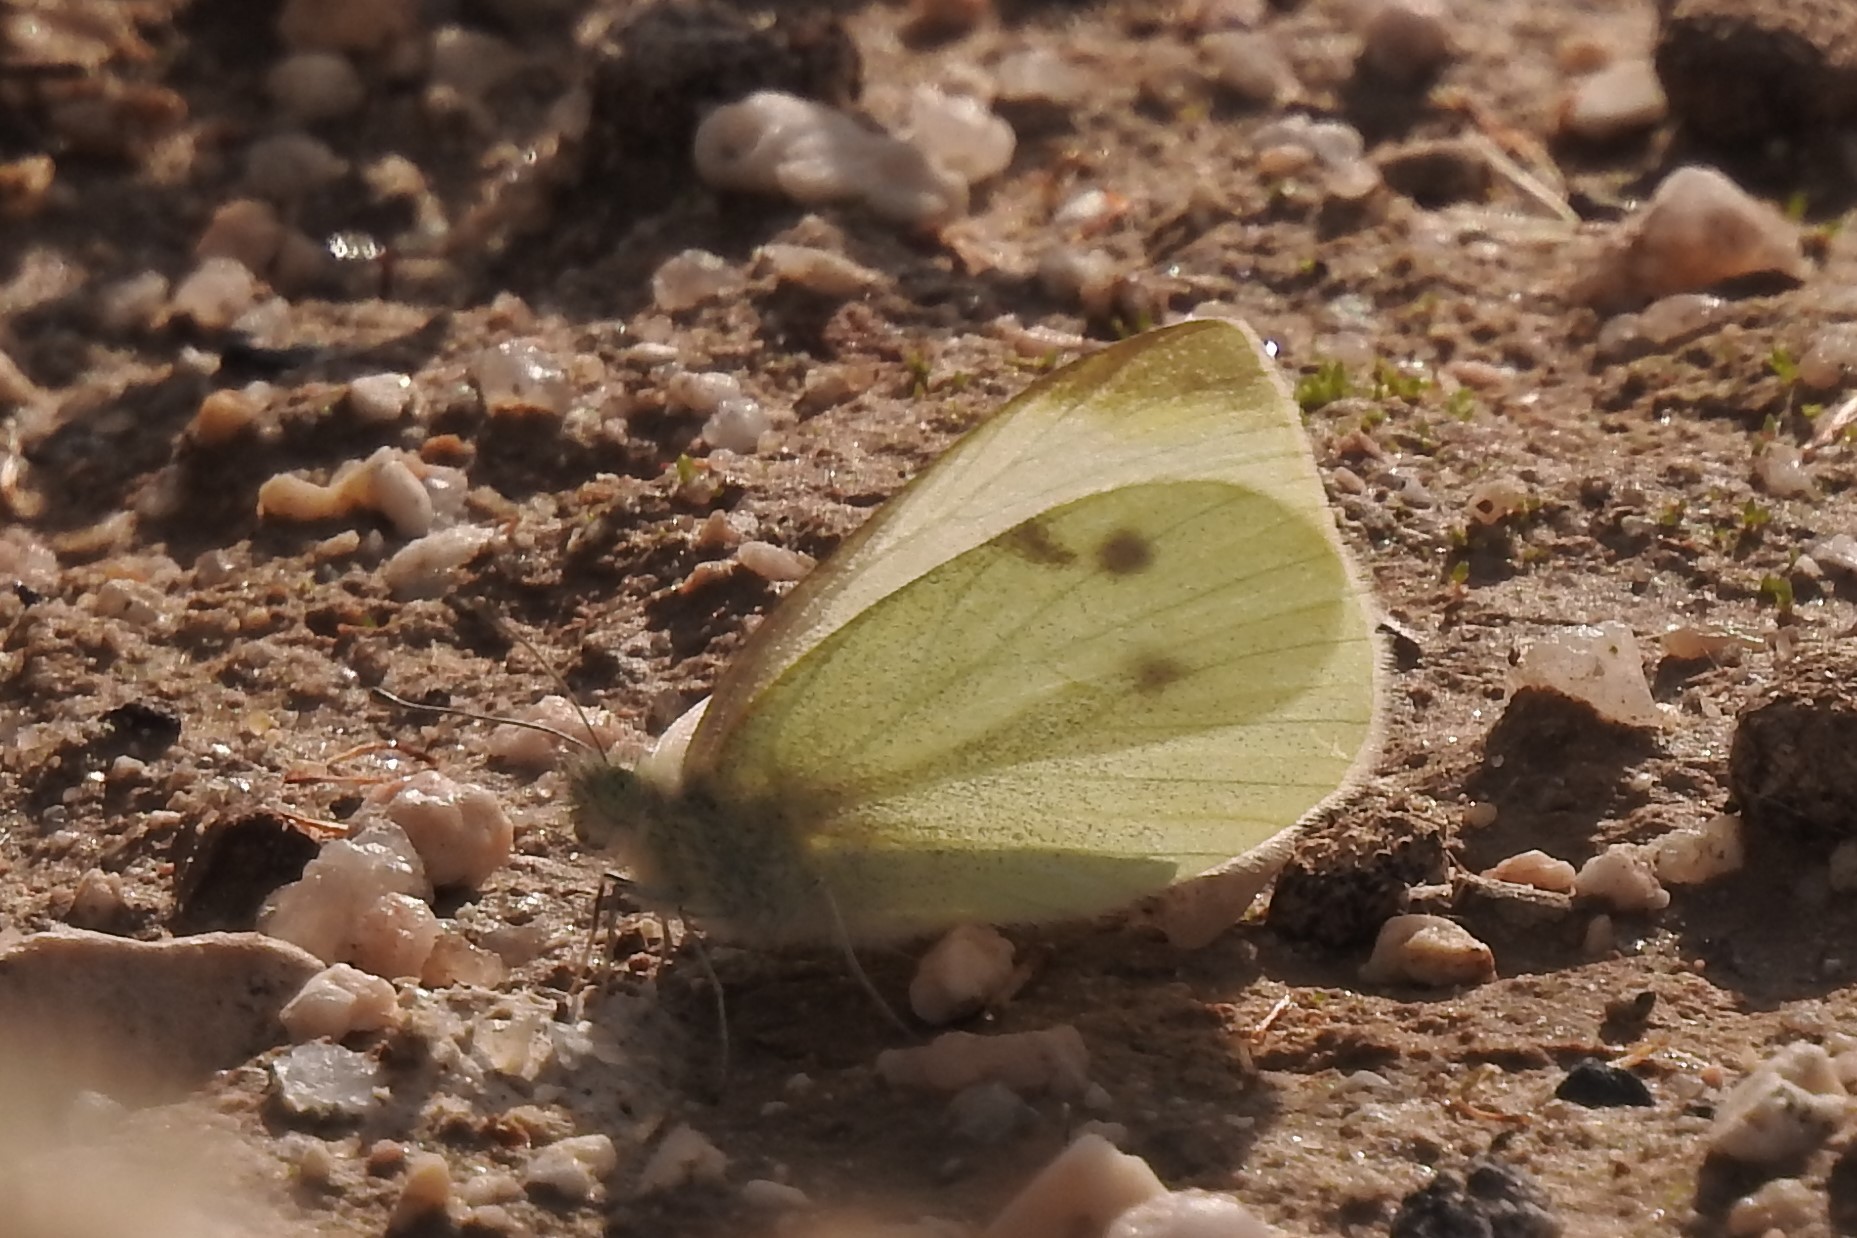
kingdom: Animalia
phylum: Arthropoda
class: Insecta
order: Lepidoptera
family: Pieridae
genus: Pieris
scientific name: Pieris rapae
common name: Small white
